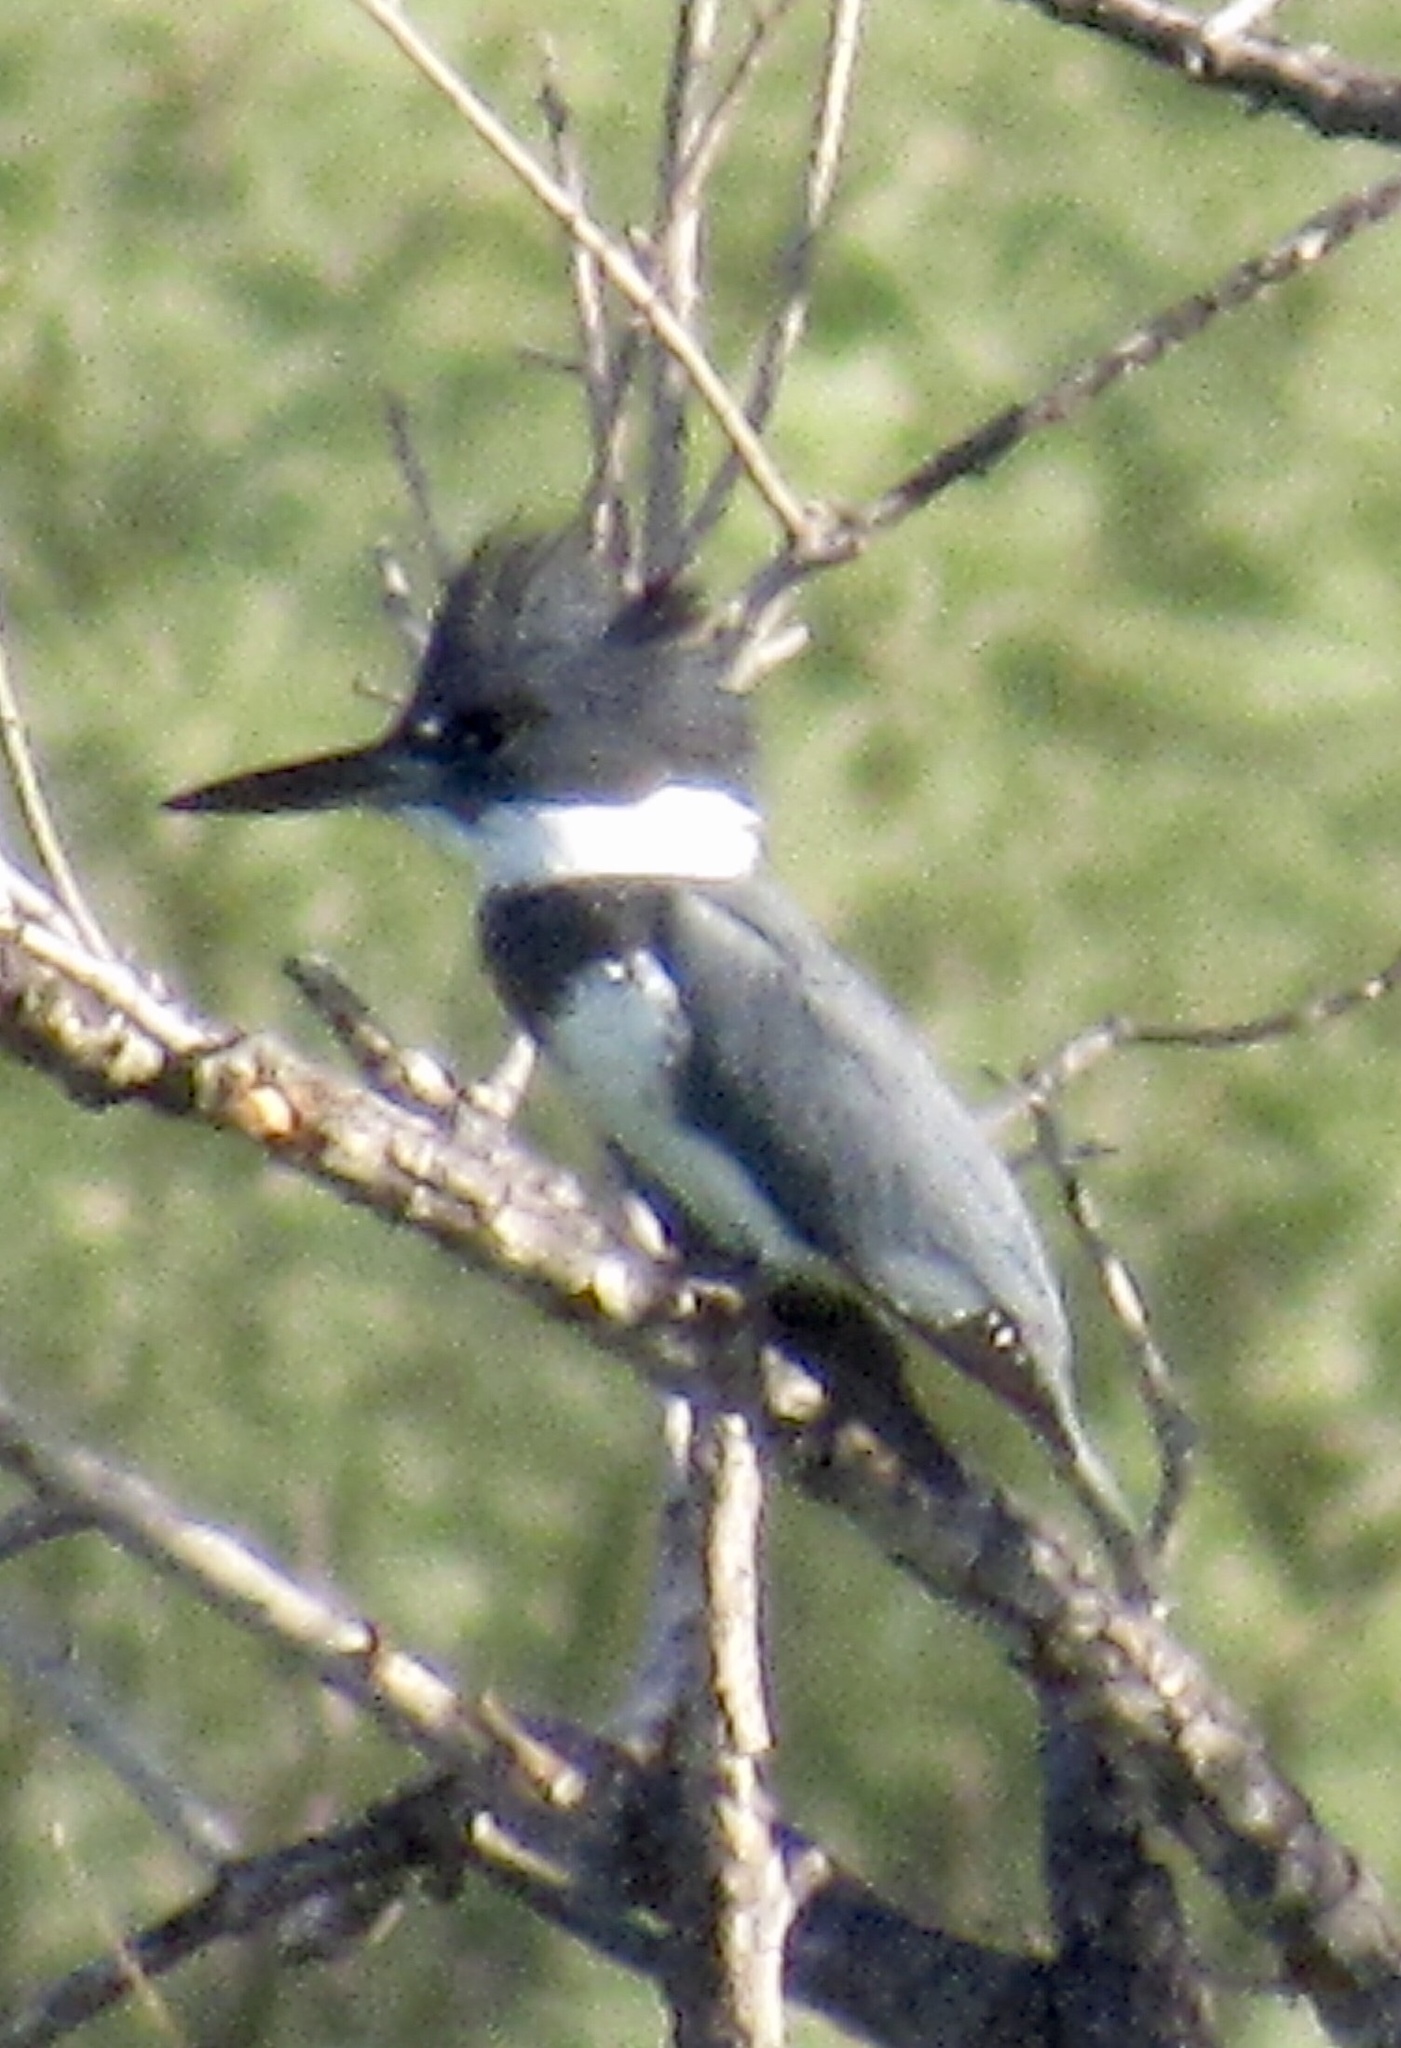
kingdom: Animalia
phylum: Chordata
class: Aves
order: Coraciiformes
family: Alcedinidae
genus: Megaceryle
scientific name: Megaceryle alcyon
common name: Belted kingfisher
